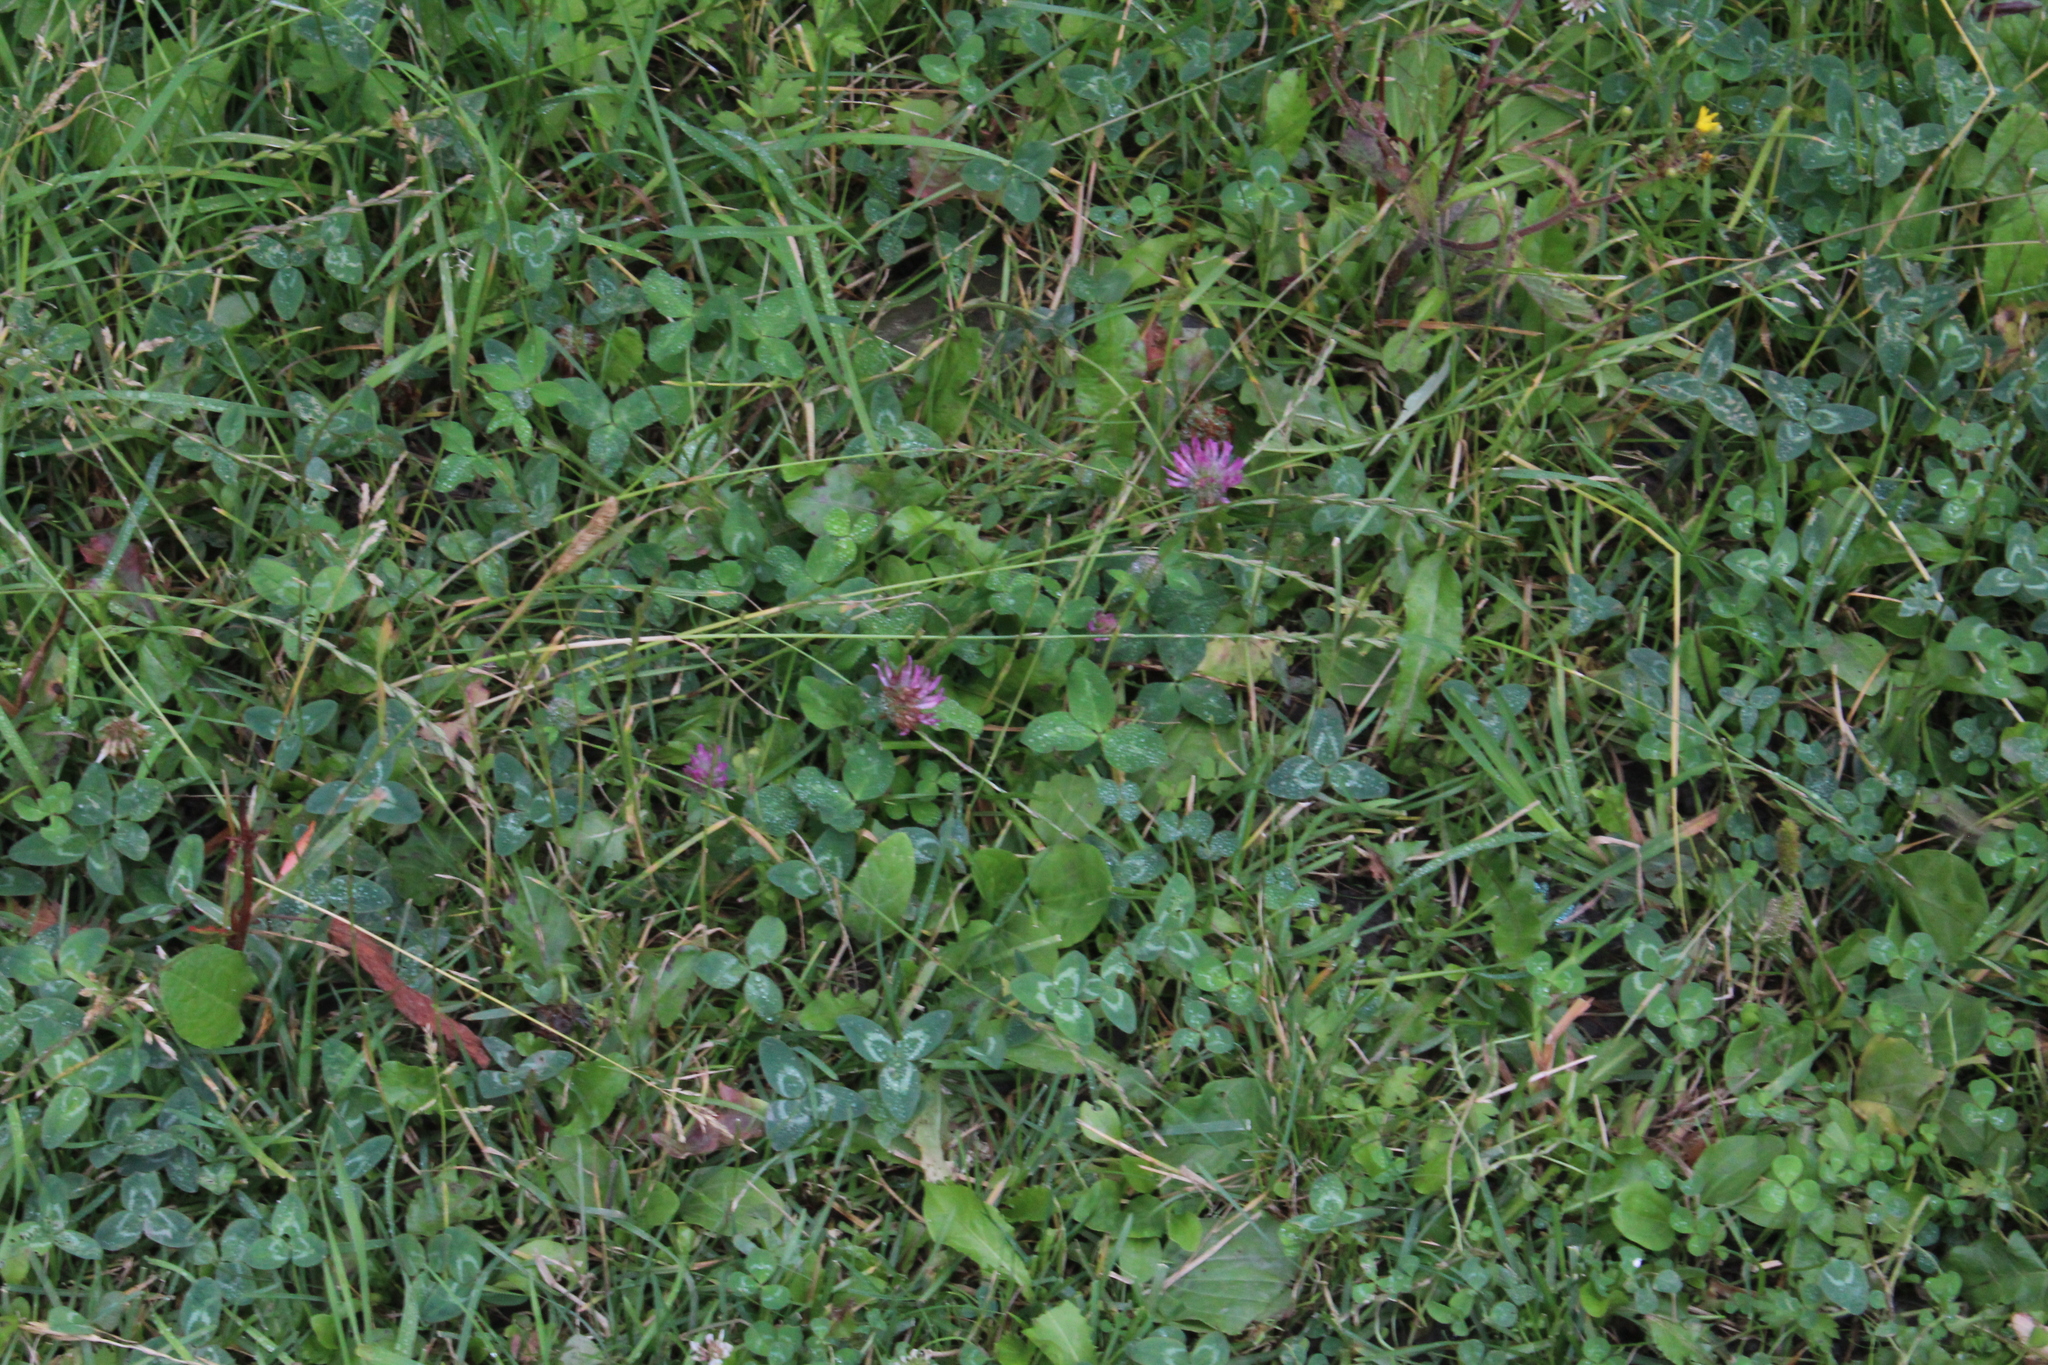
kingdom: Plantae
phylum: Tracheophyta
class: Magnoliopsida
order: Fabales
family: Fabaceae
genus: Trifolium
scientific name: Trifolium pratense
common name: Red clover
